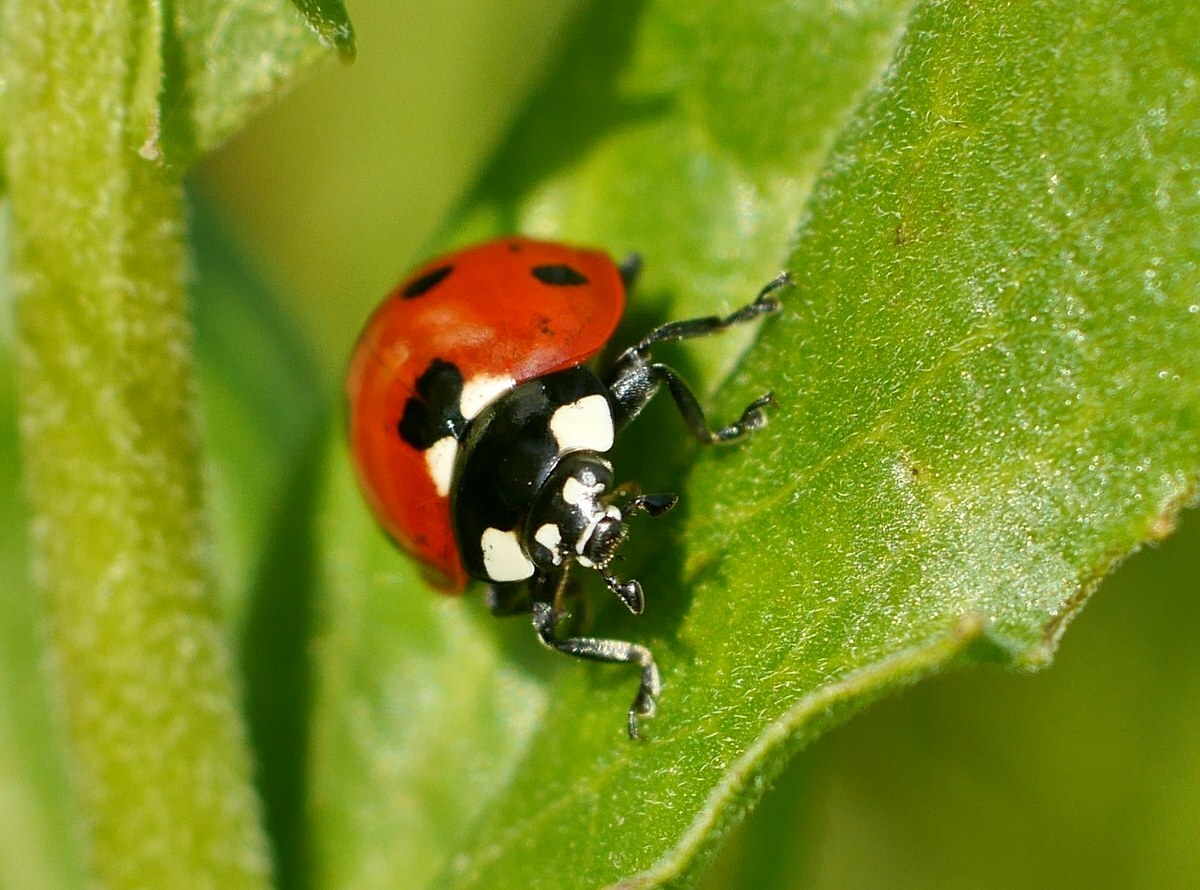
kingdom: Animalia
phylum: Arthropoda
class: Insecta
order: Coleoptera
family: Coccinellidae
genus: Coccinella
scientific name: Coccinella septempunctata
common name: Sevenspotted lady beetle
